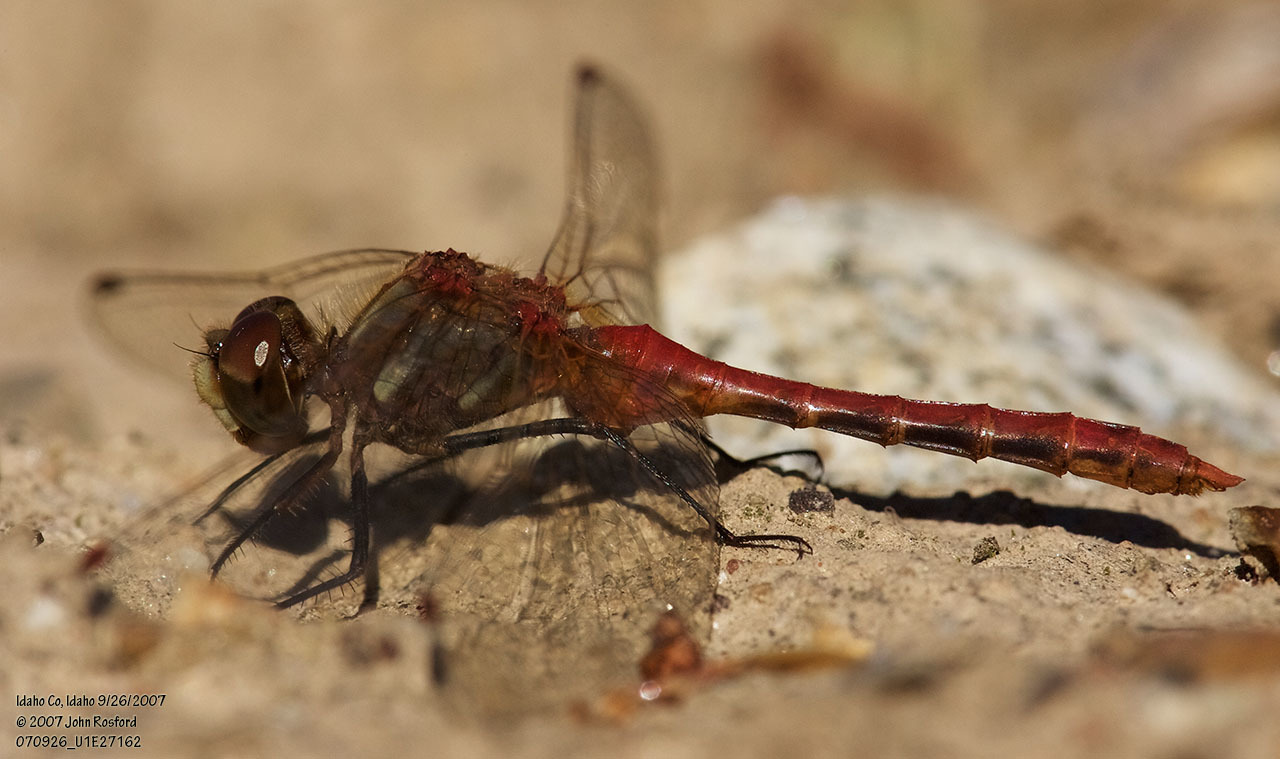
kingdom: Animalia
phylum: Arthropoda
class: Insecta
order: Odonata
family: Libellulidae
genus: Sympetrum
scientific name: Sympetrum pallipes
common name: Striped meadowhawk
